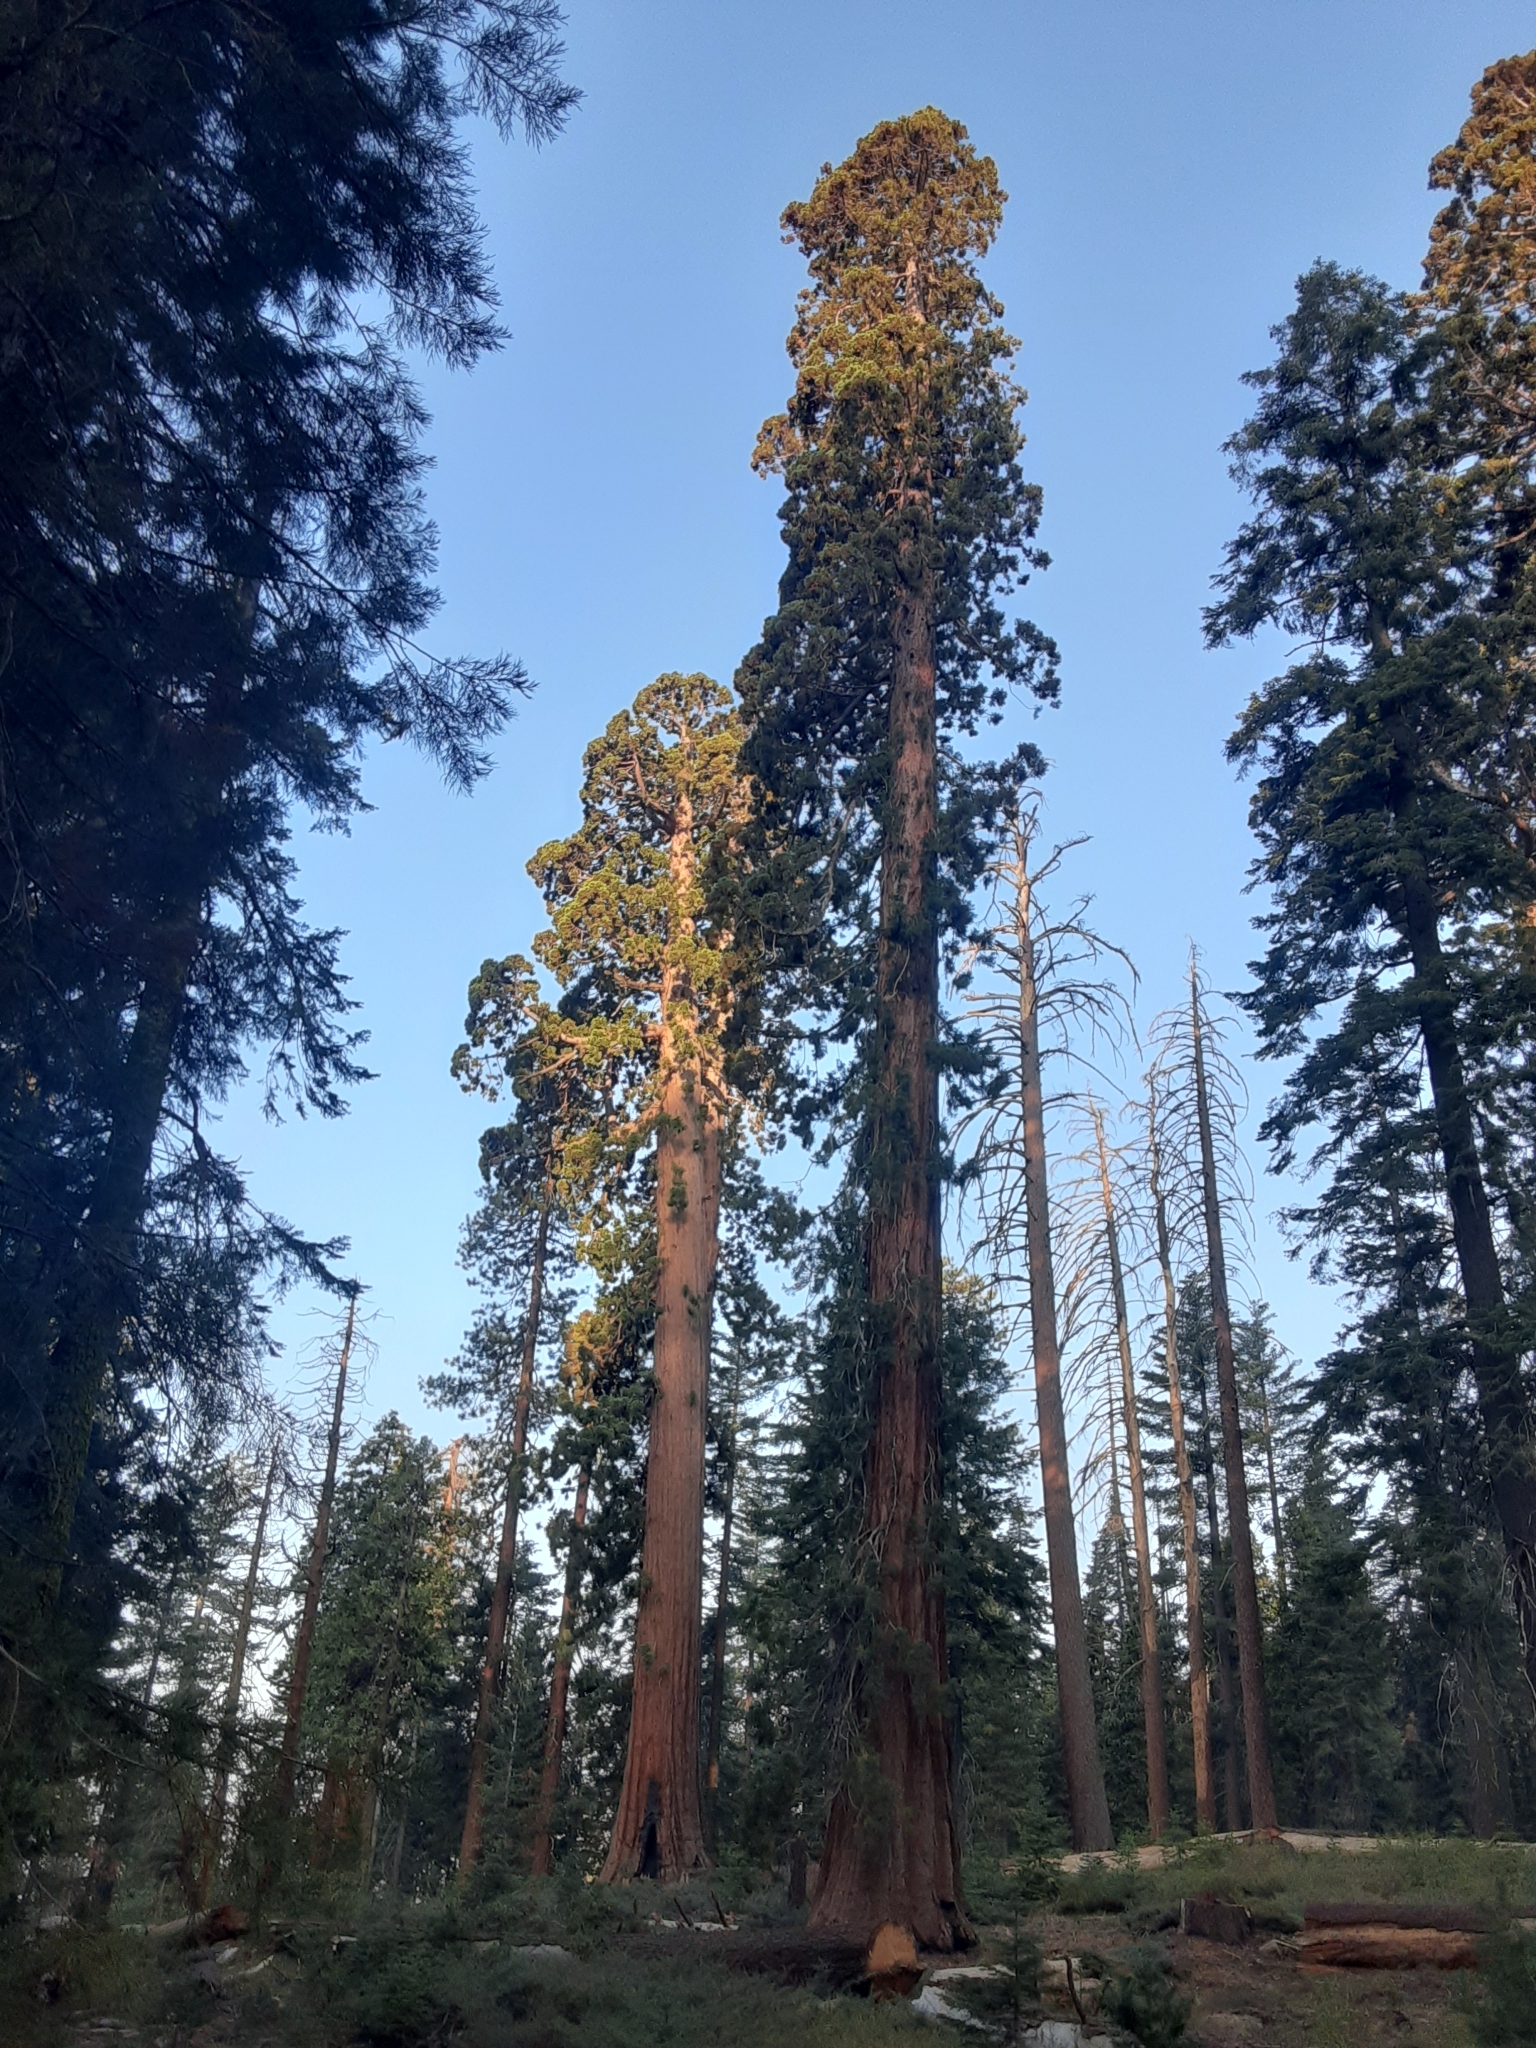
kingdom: Plantae
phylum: Tracheophyta
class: Pinopsida
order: Pinales
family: Cupressaceae
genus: Sequoiadendron
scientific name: Sequoiadendron giganteum
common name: Wellingtonia
